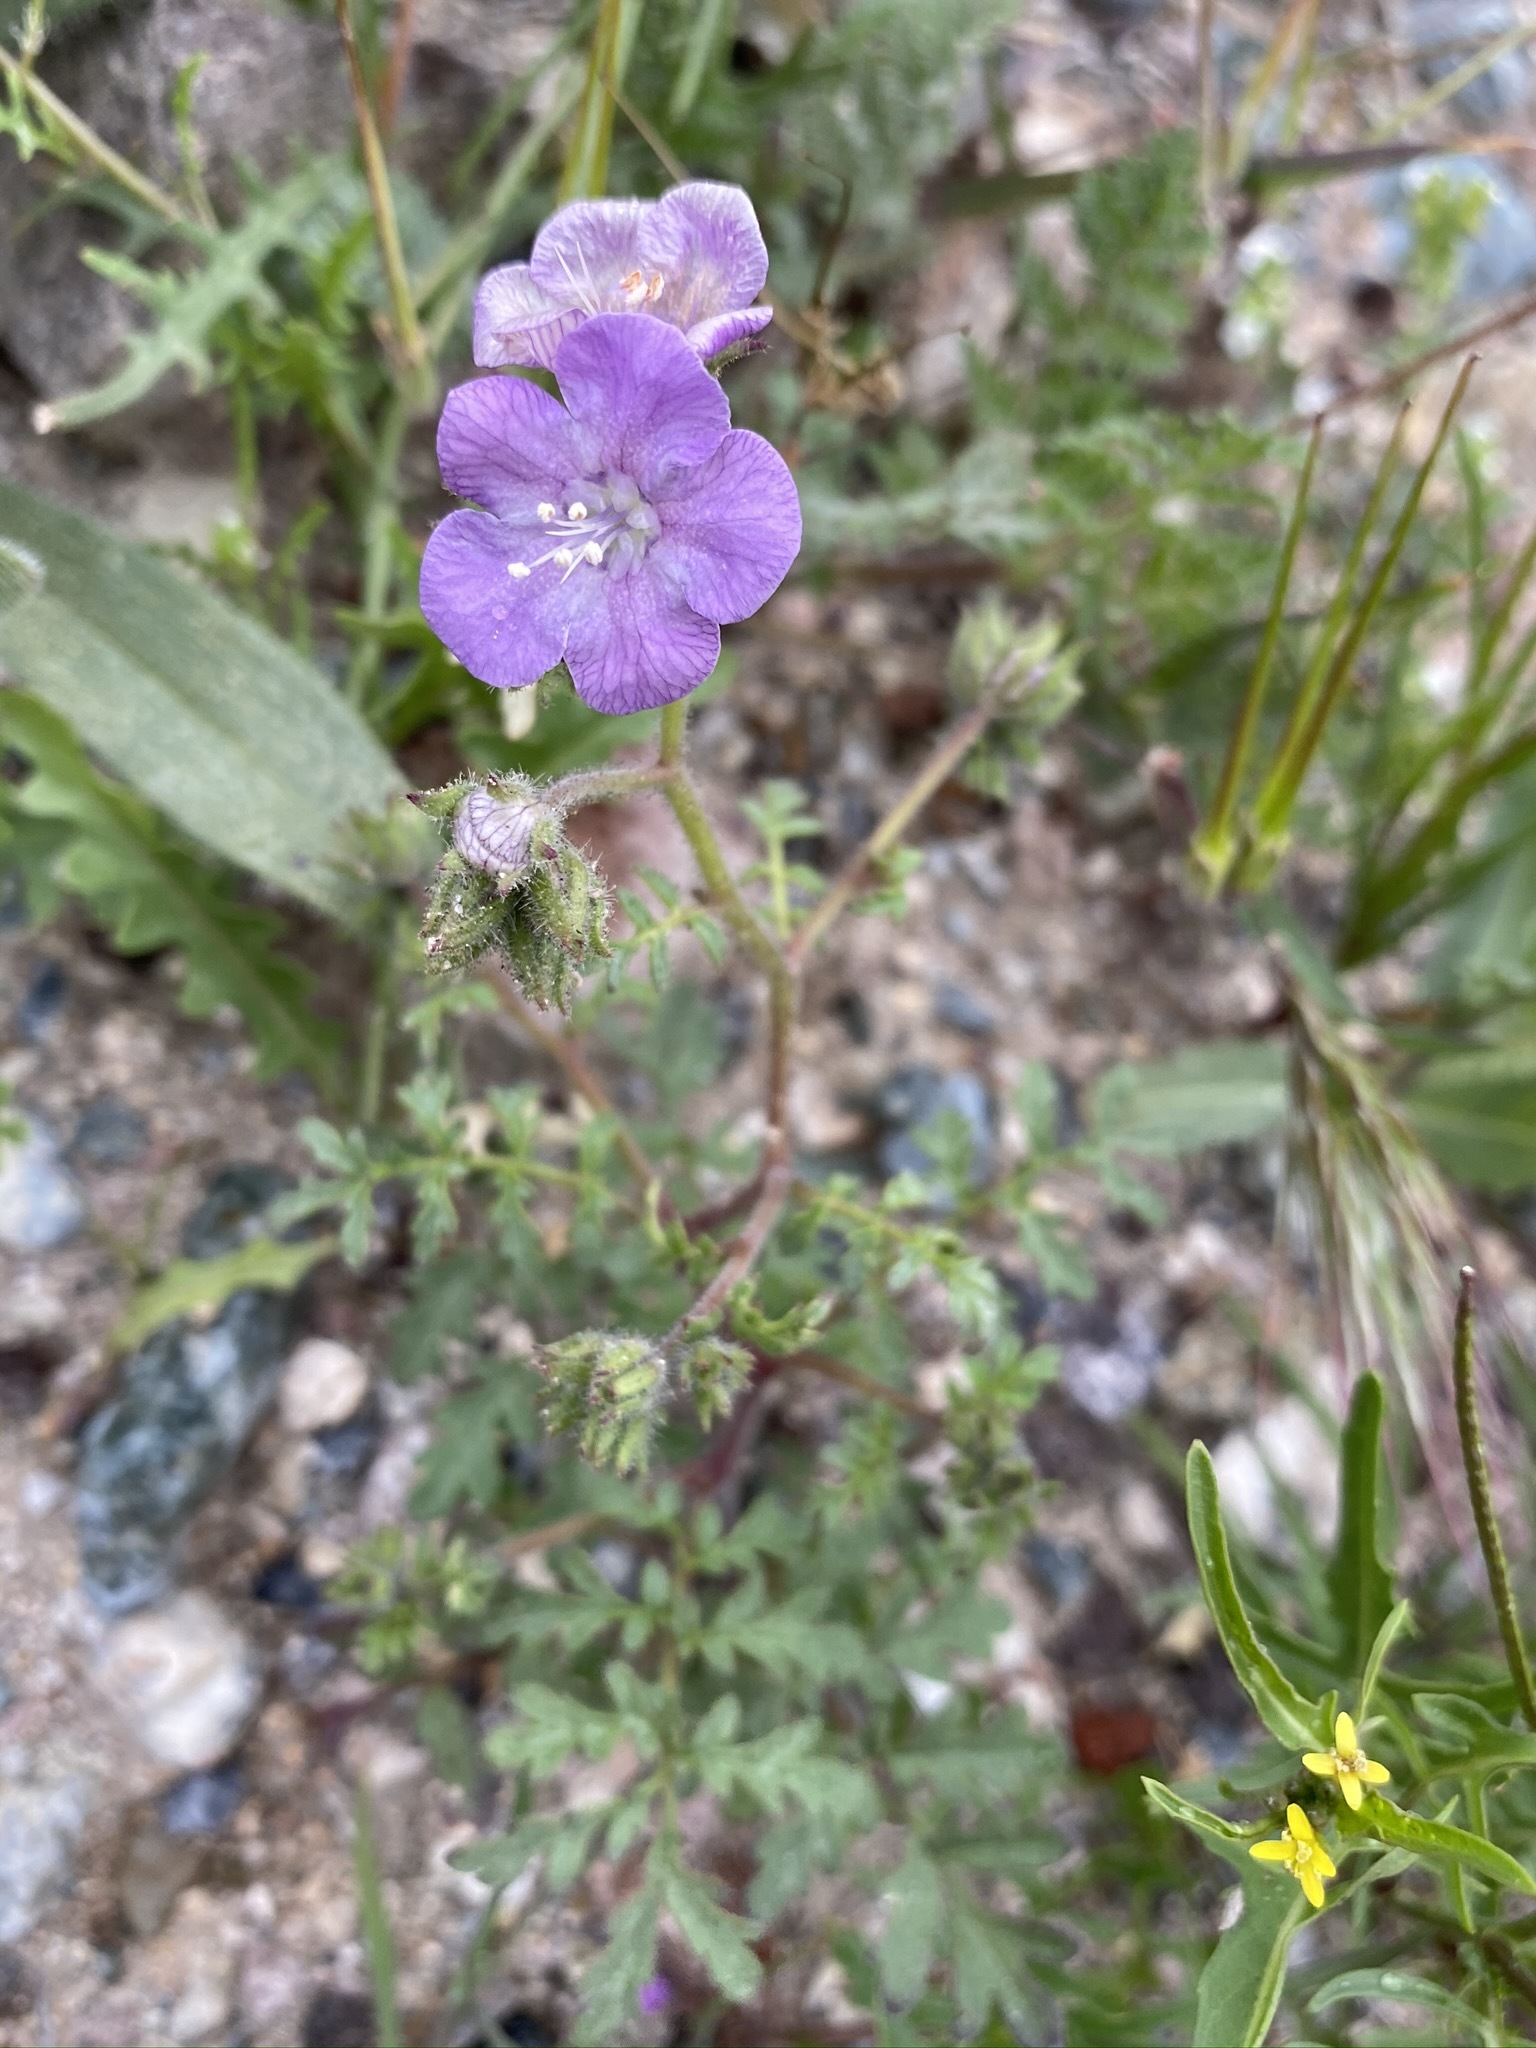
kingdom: Plantae
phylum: Tracheophyta
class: Magnoliopsida
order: Boraginales
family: Hydrophyllaceae
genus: Phacelia
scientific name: Phacelia vallis-mortae
